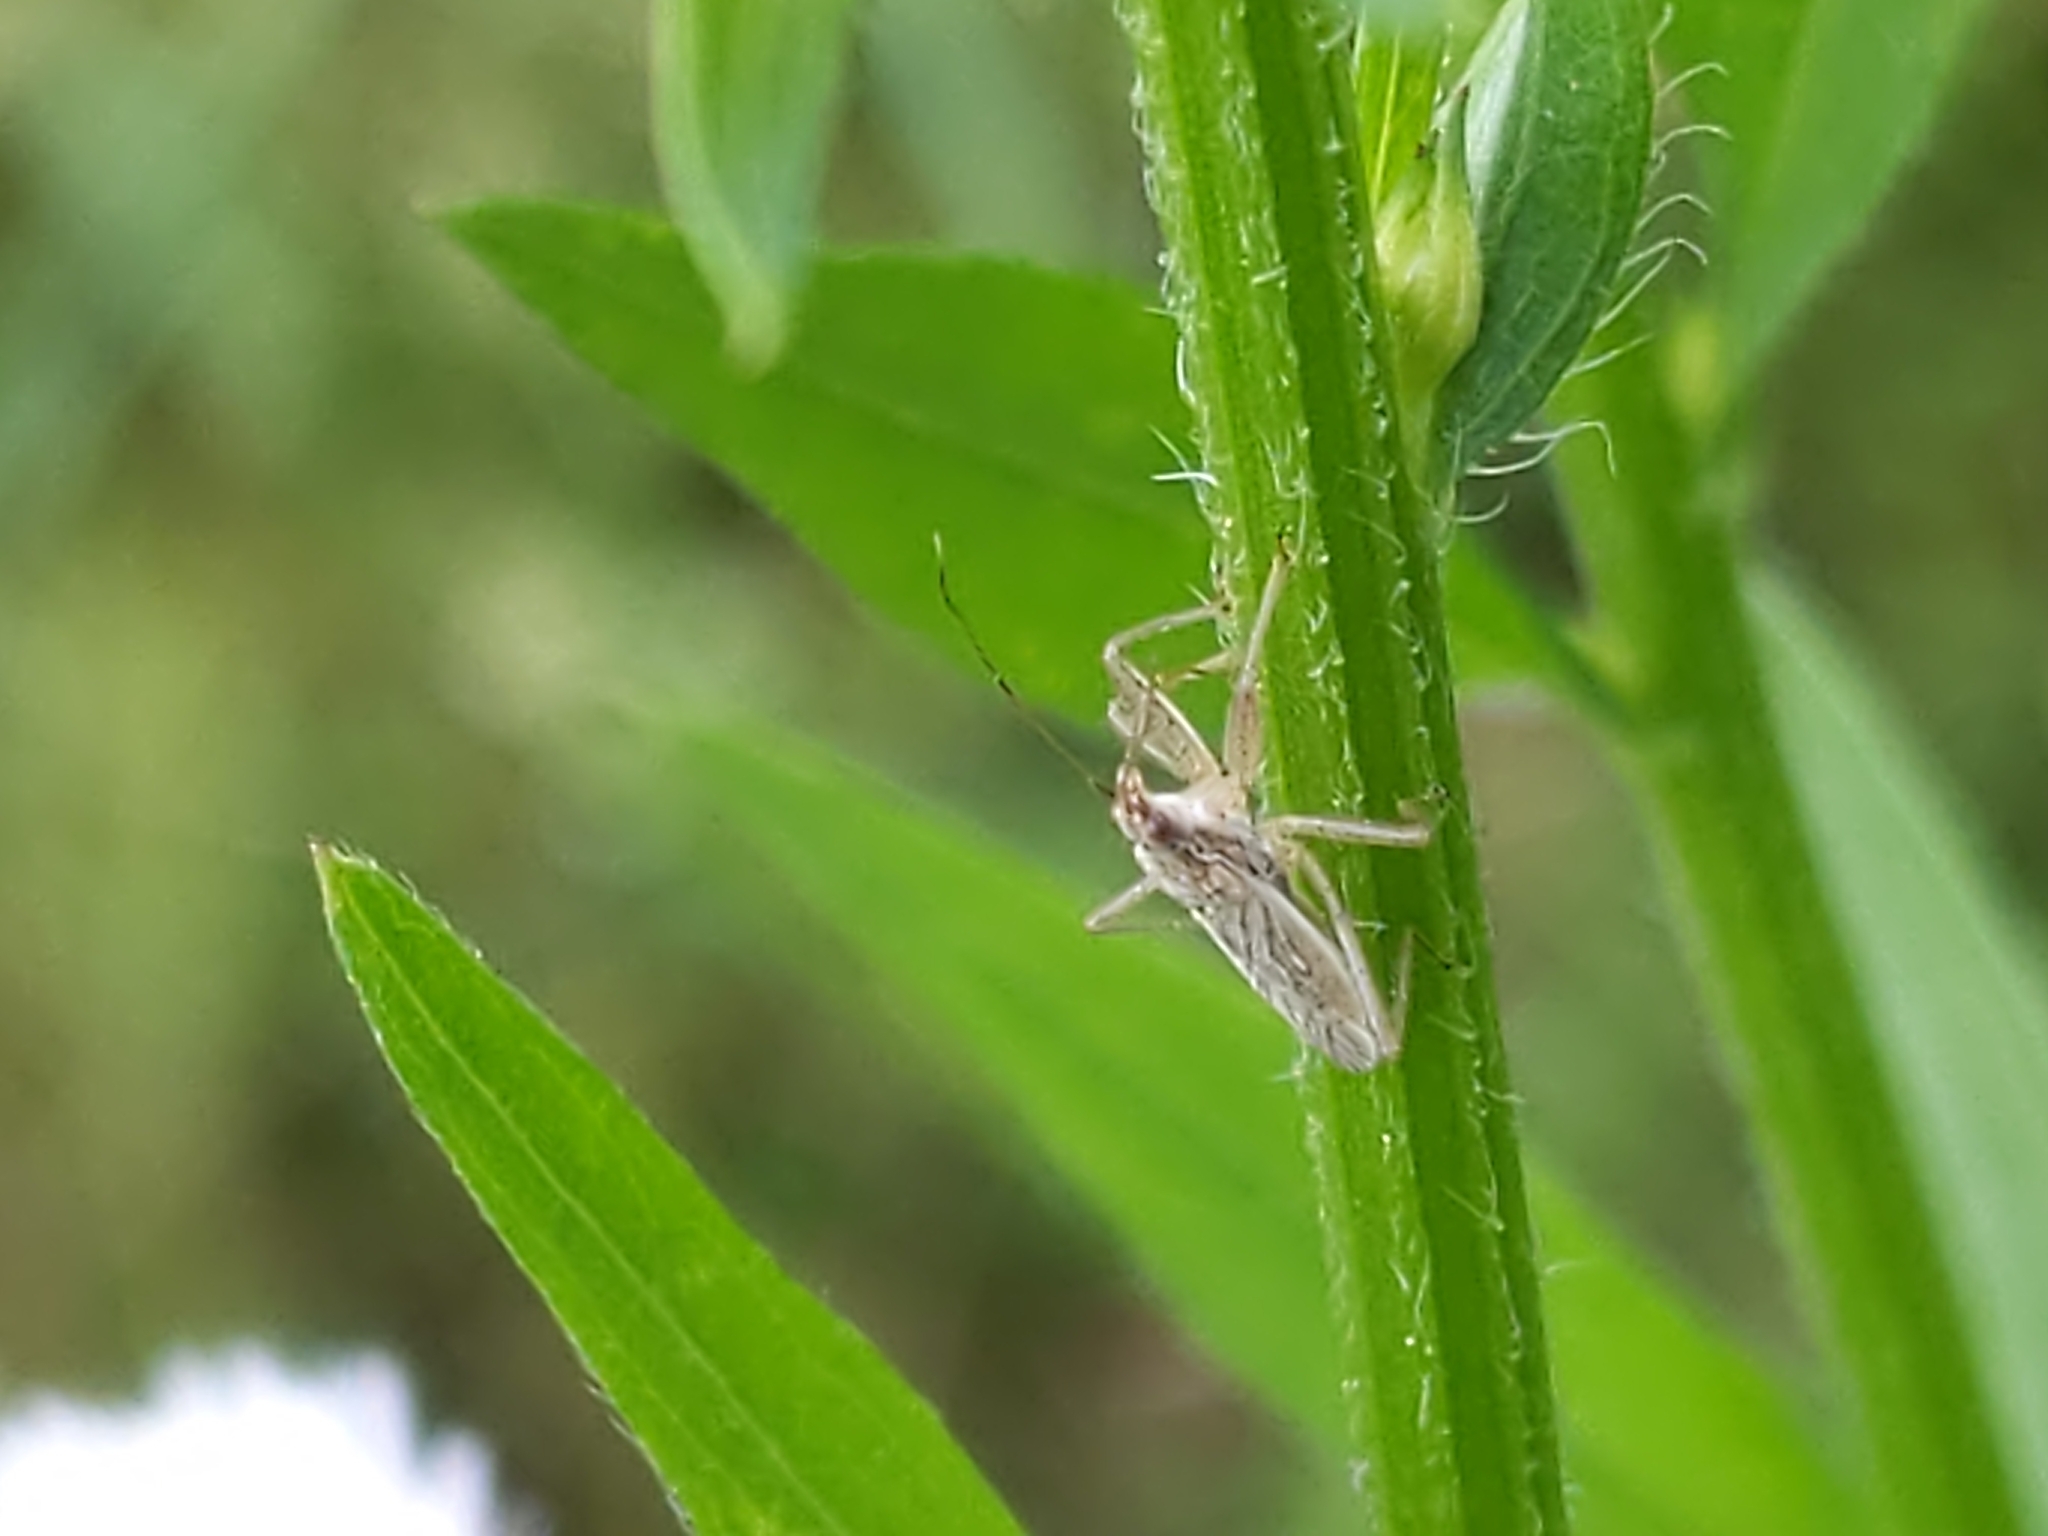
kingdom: Animalia
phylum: Arthropoda
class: Insecta
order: Hemiptera
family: Nabidae
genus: Nabis
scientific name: Nabis
